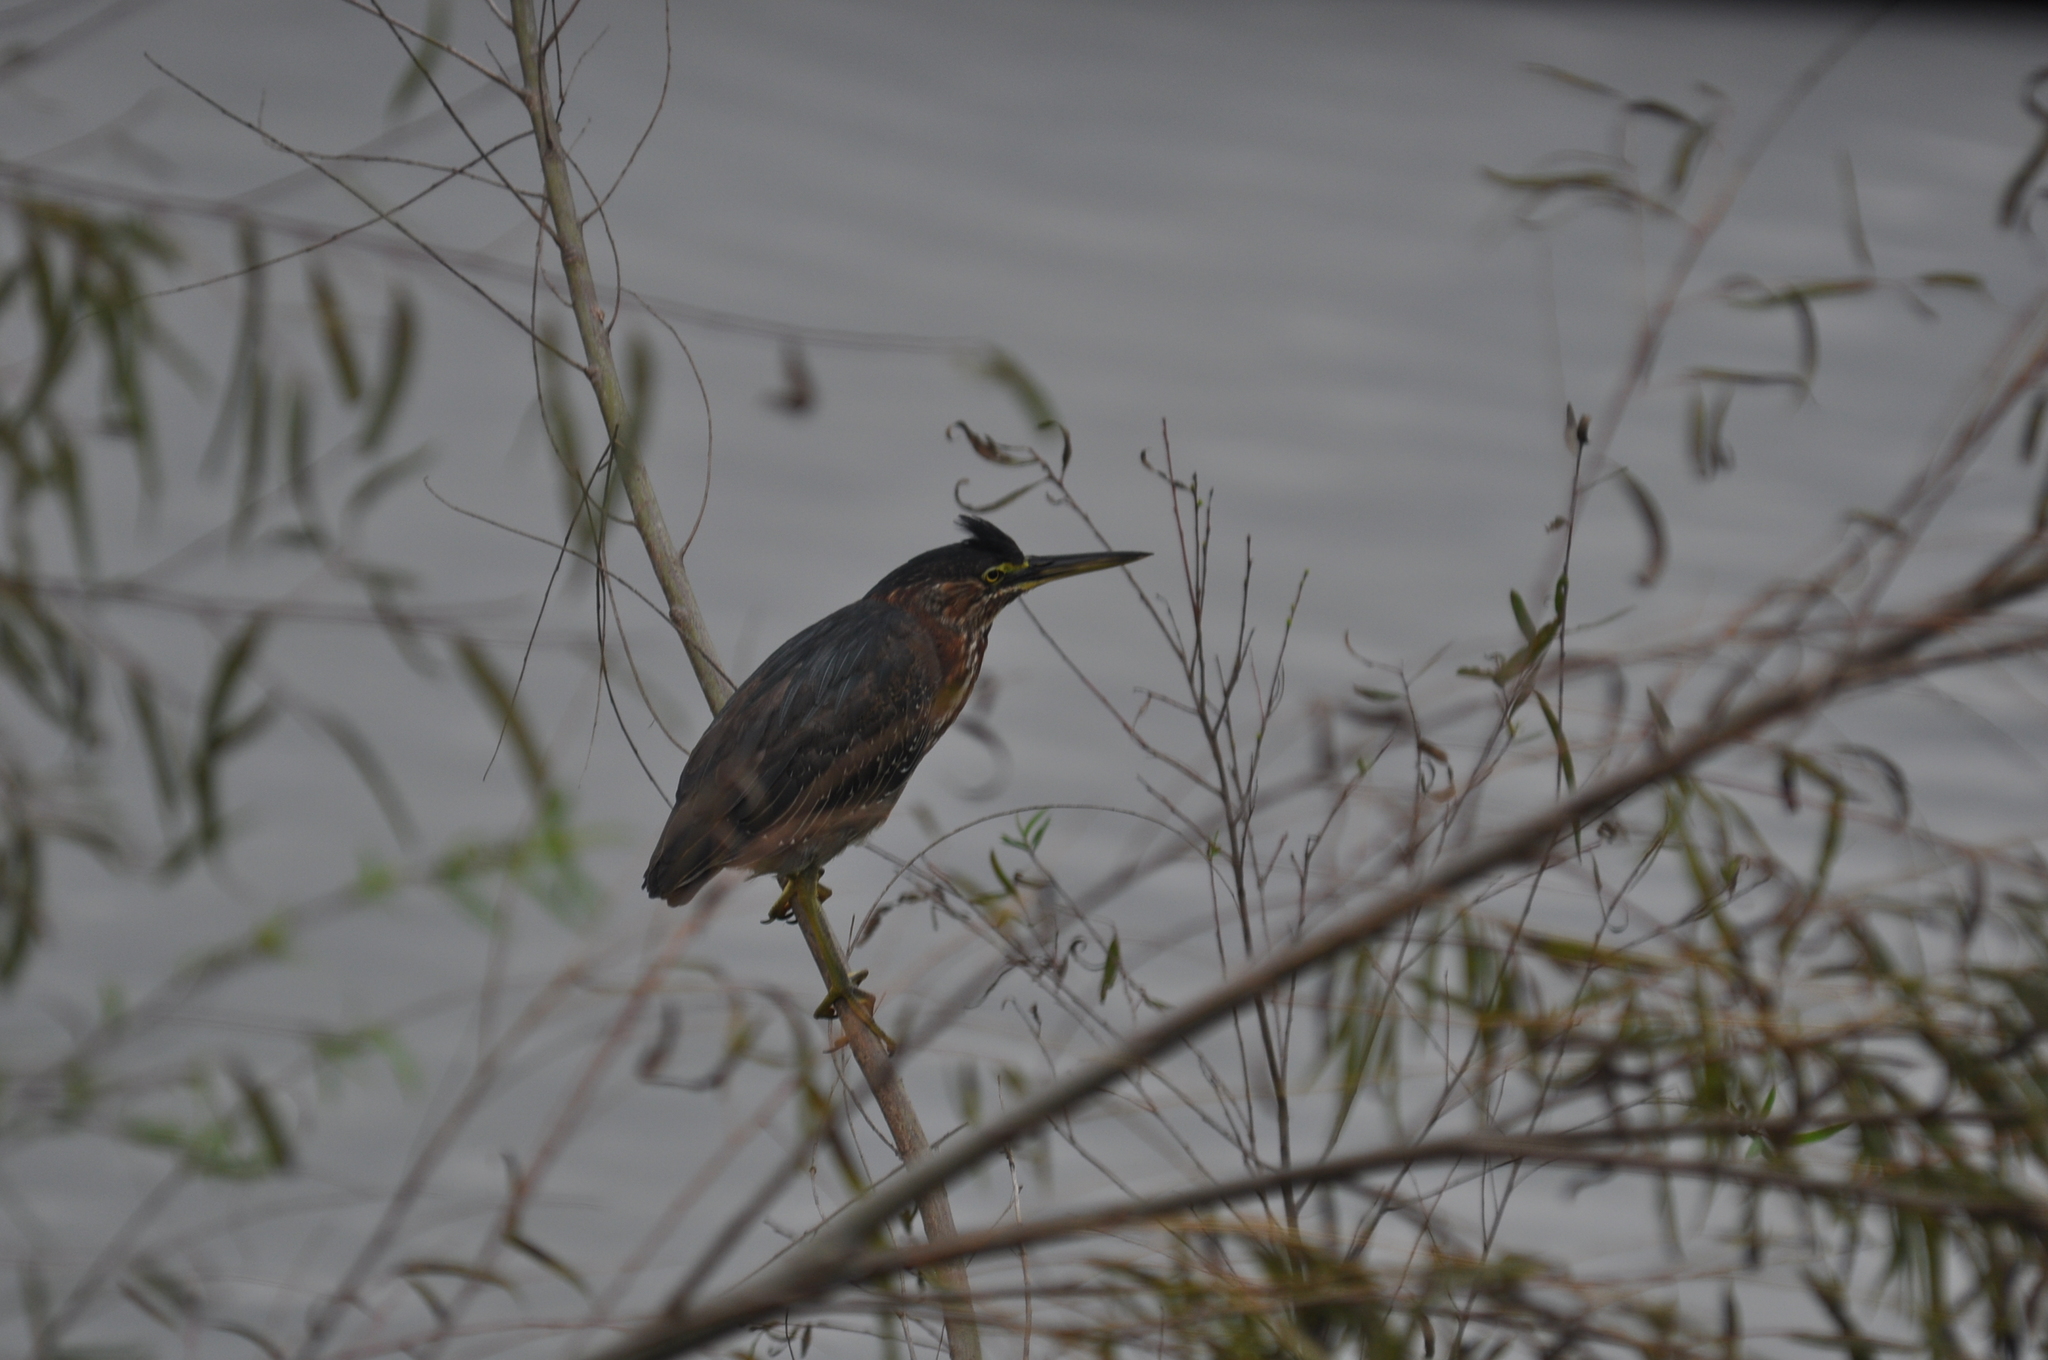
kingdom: Animalia
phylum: Chordata
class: Aves
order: Pelecaniformes
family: Ardeidae
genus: Butorides
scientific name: Butorides virescens
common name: Green heron
